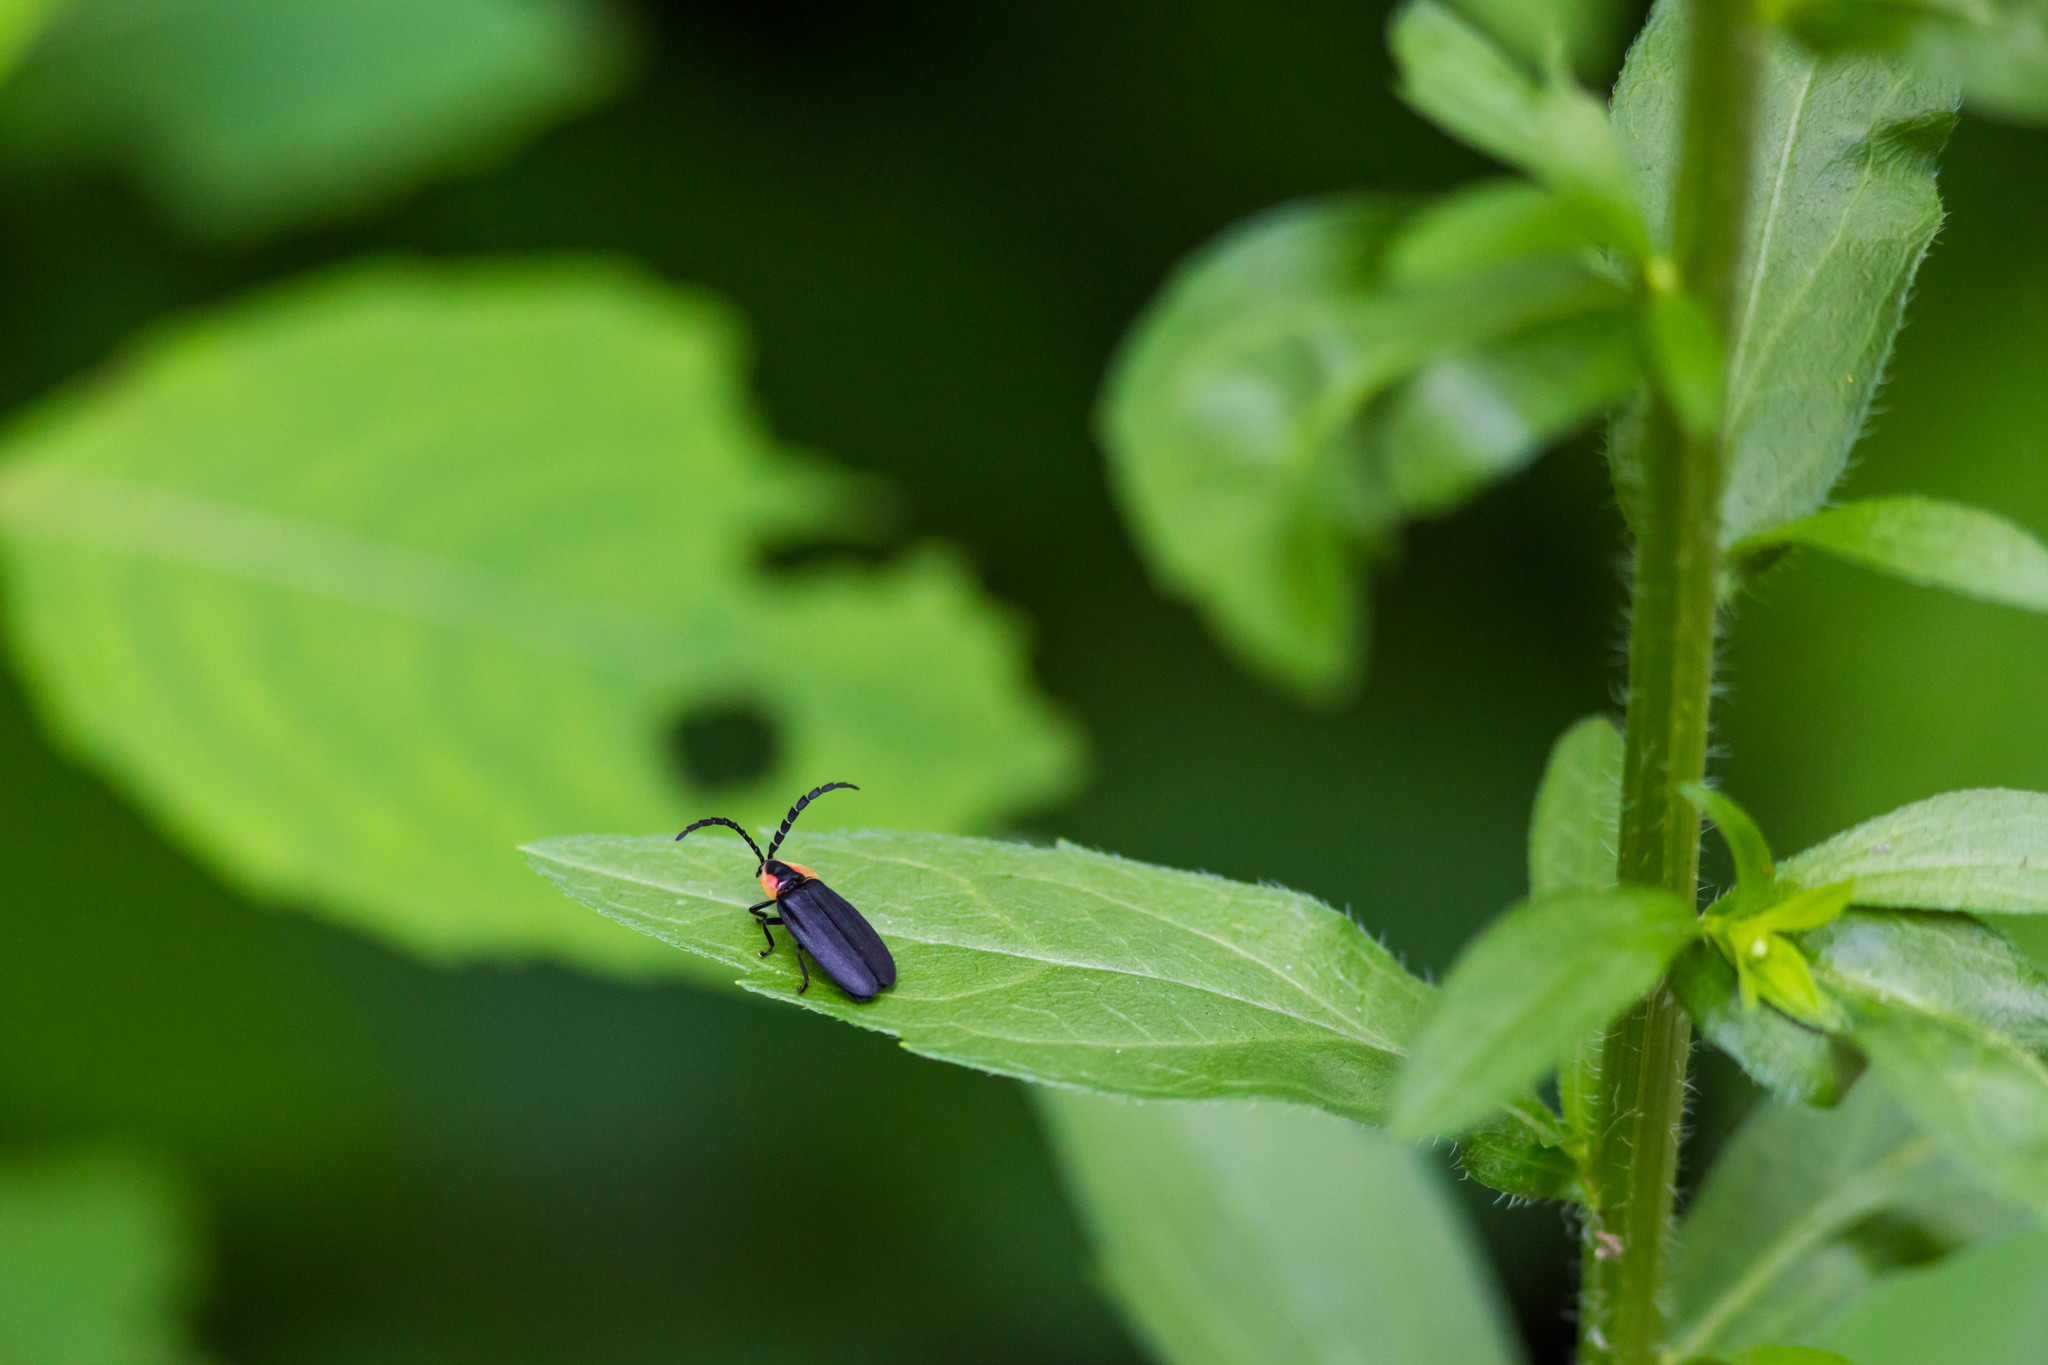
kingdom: Animalia
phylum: Arthropoda
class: Insecta
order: Coleoptera
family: Lampyridae
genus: Lucidota
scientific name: Lucidota atra
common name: Black firefly
